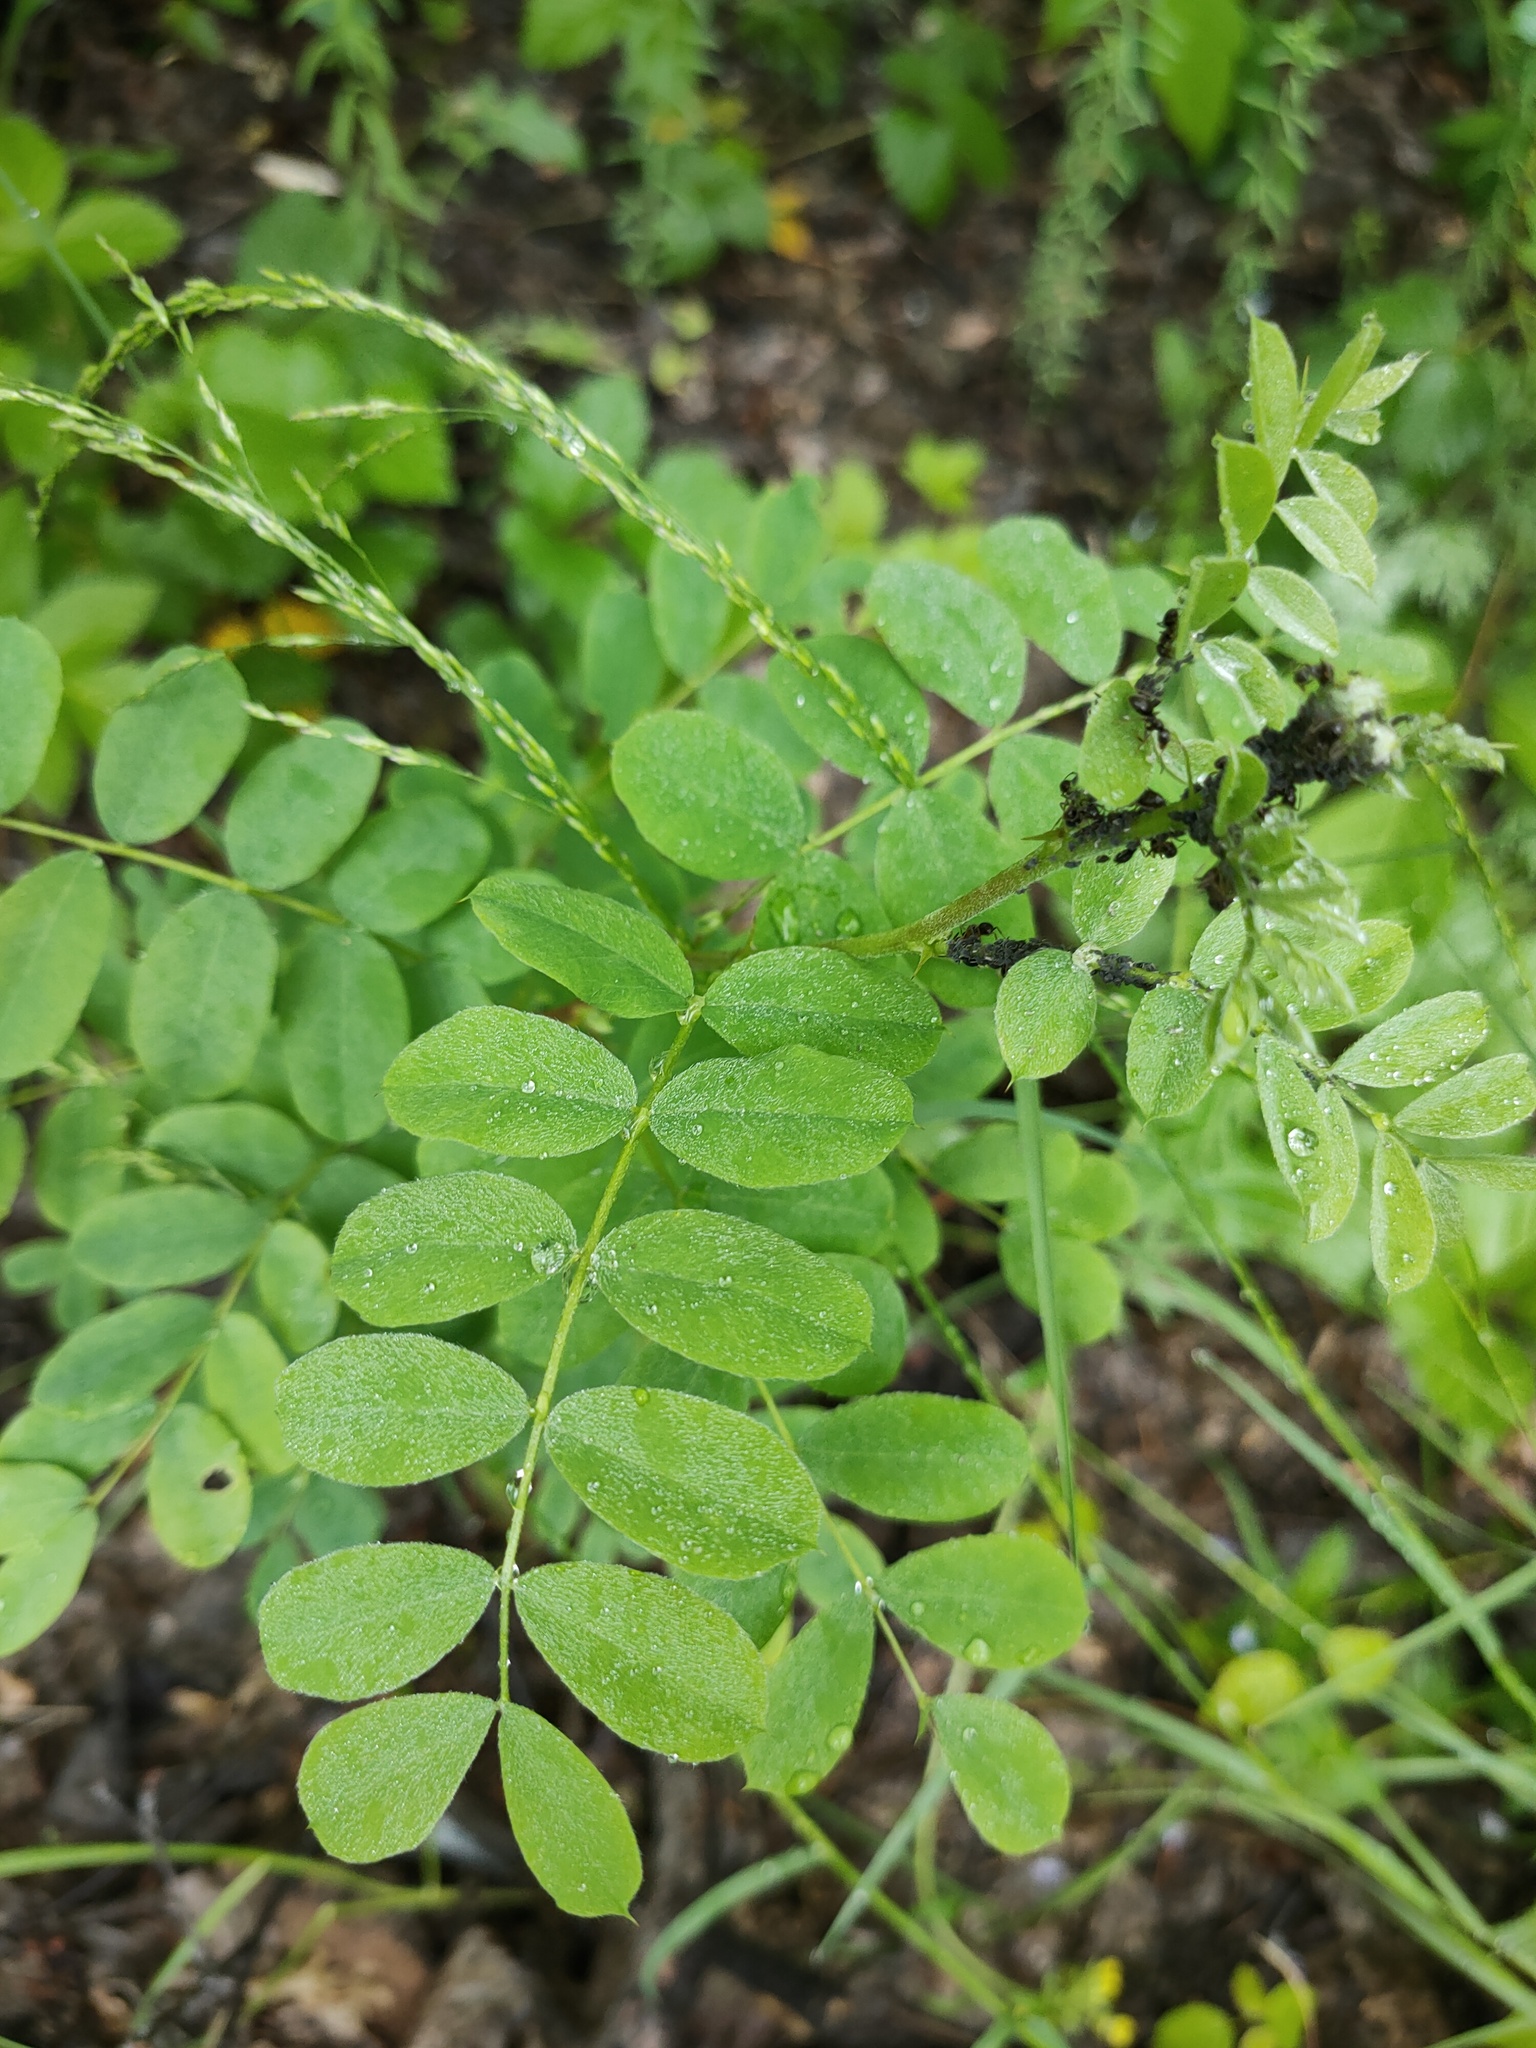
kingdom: Plantae
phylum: Tracheophyta
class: Magnoliopsida
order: Fabales
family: Fabaceae
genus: Caragana
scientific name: Caragana arborescens
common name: Siberian peashrub
